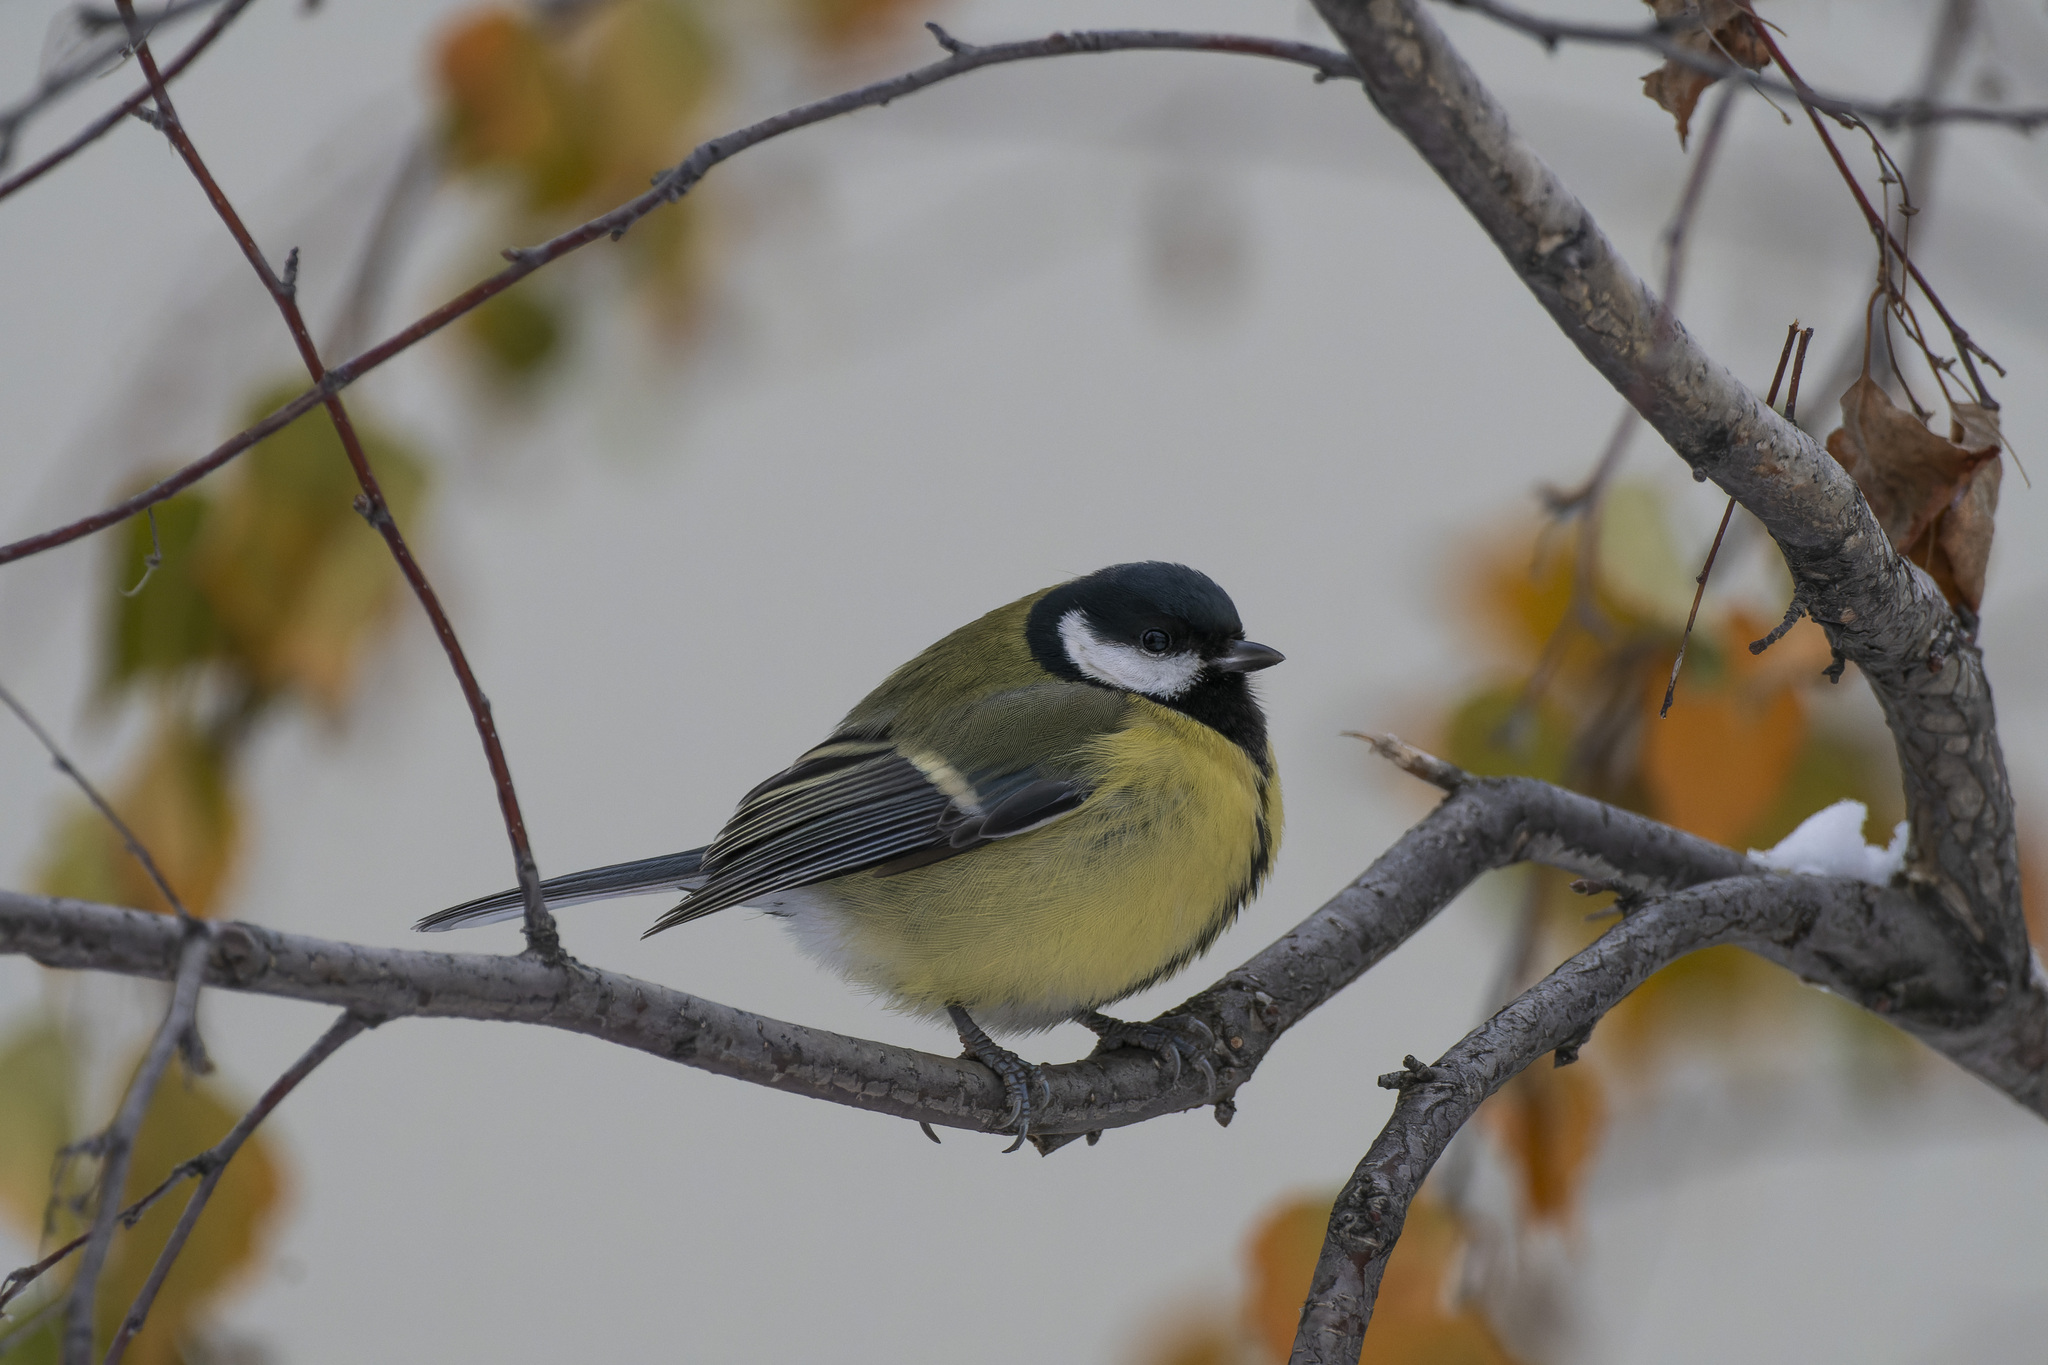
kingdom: Animalia
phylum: Chordata
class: Aves
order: Passeriformes
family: Paridae
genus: Parus
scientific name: Parus major
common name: Great tit
